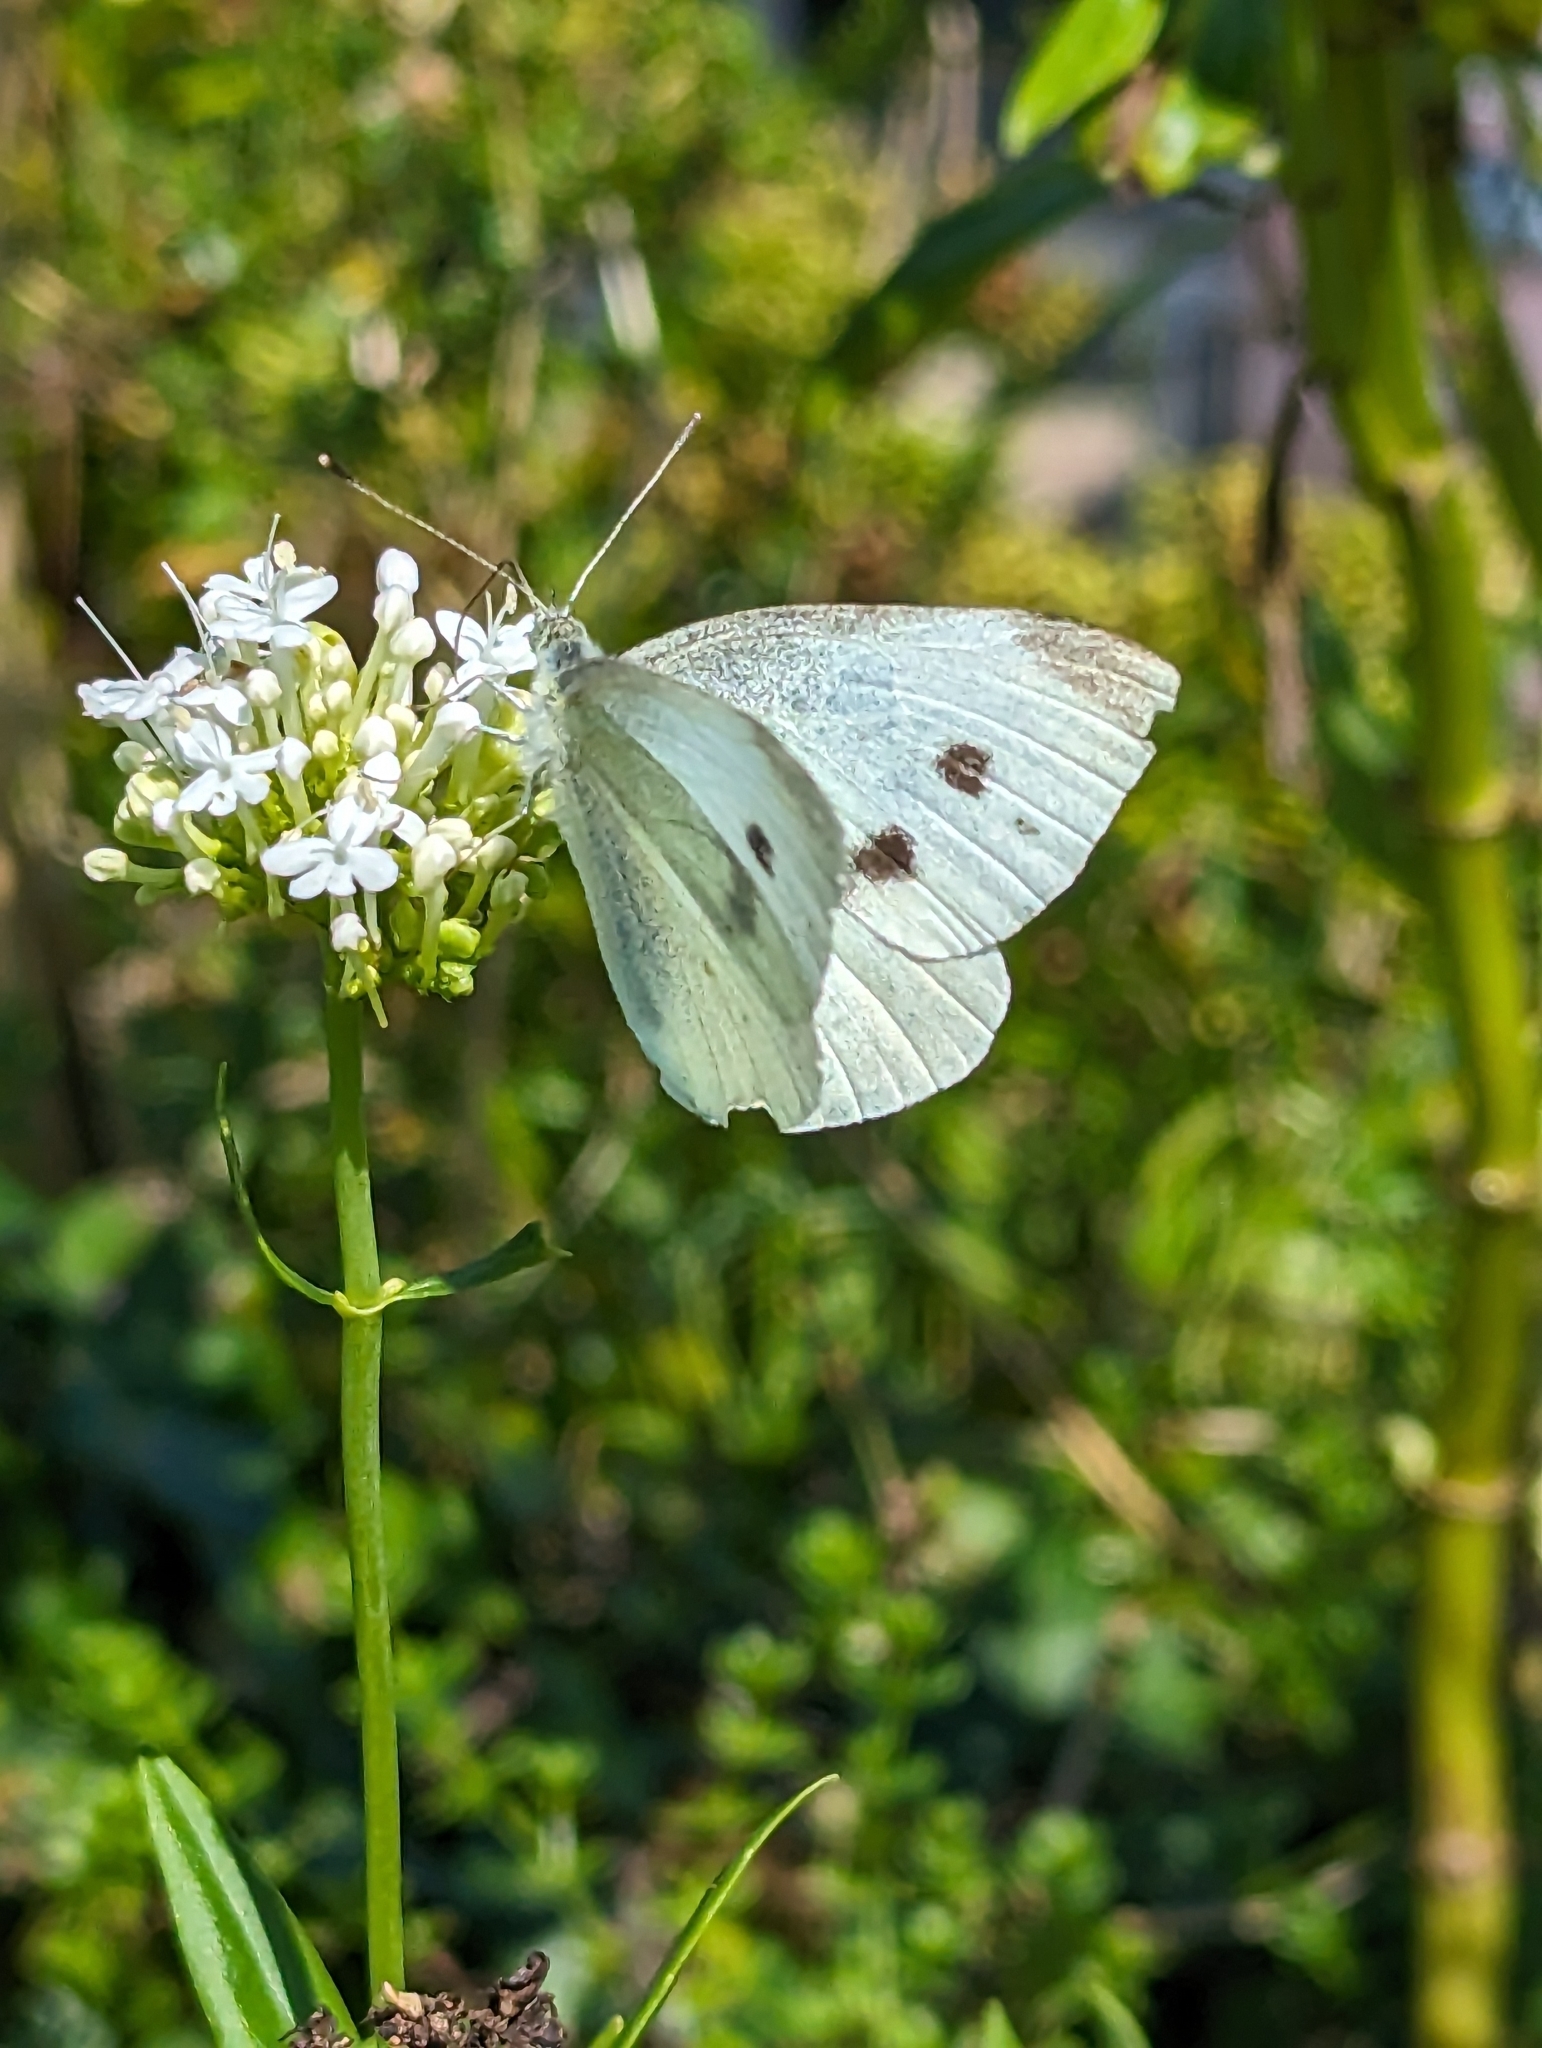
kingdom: Animalia
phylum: Arthropoda
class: Insecta
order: Lepidoptera
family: Pieridae
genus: Pieris
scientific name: Pieris rapae
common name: Small white
